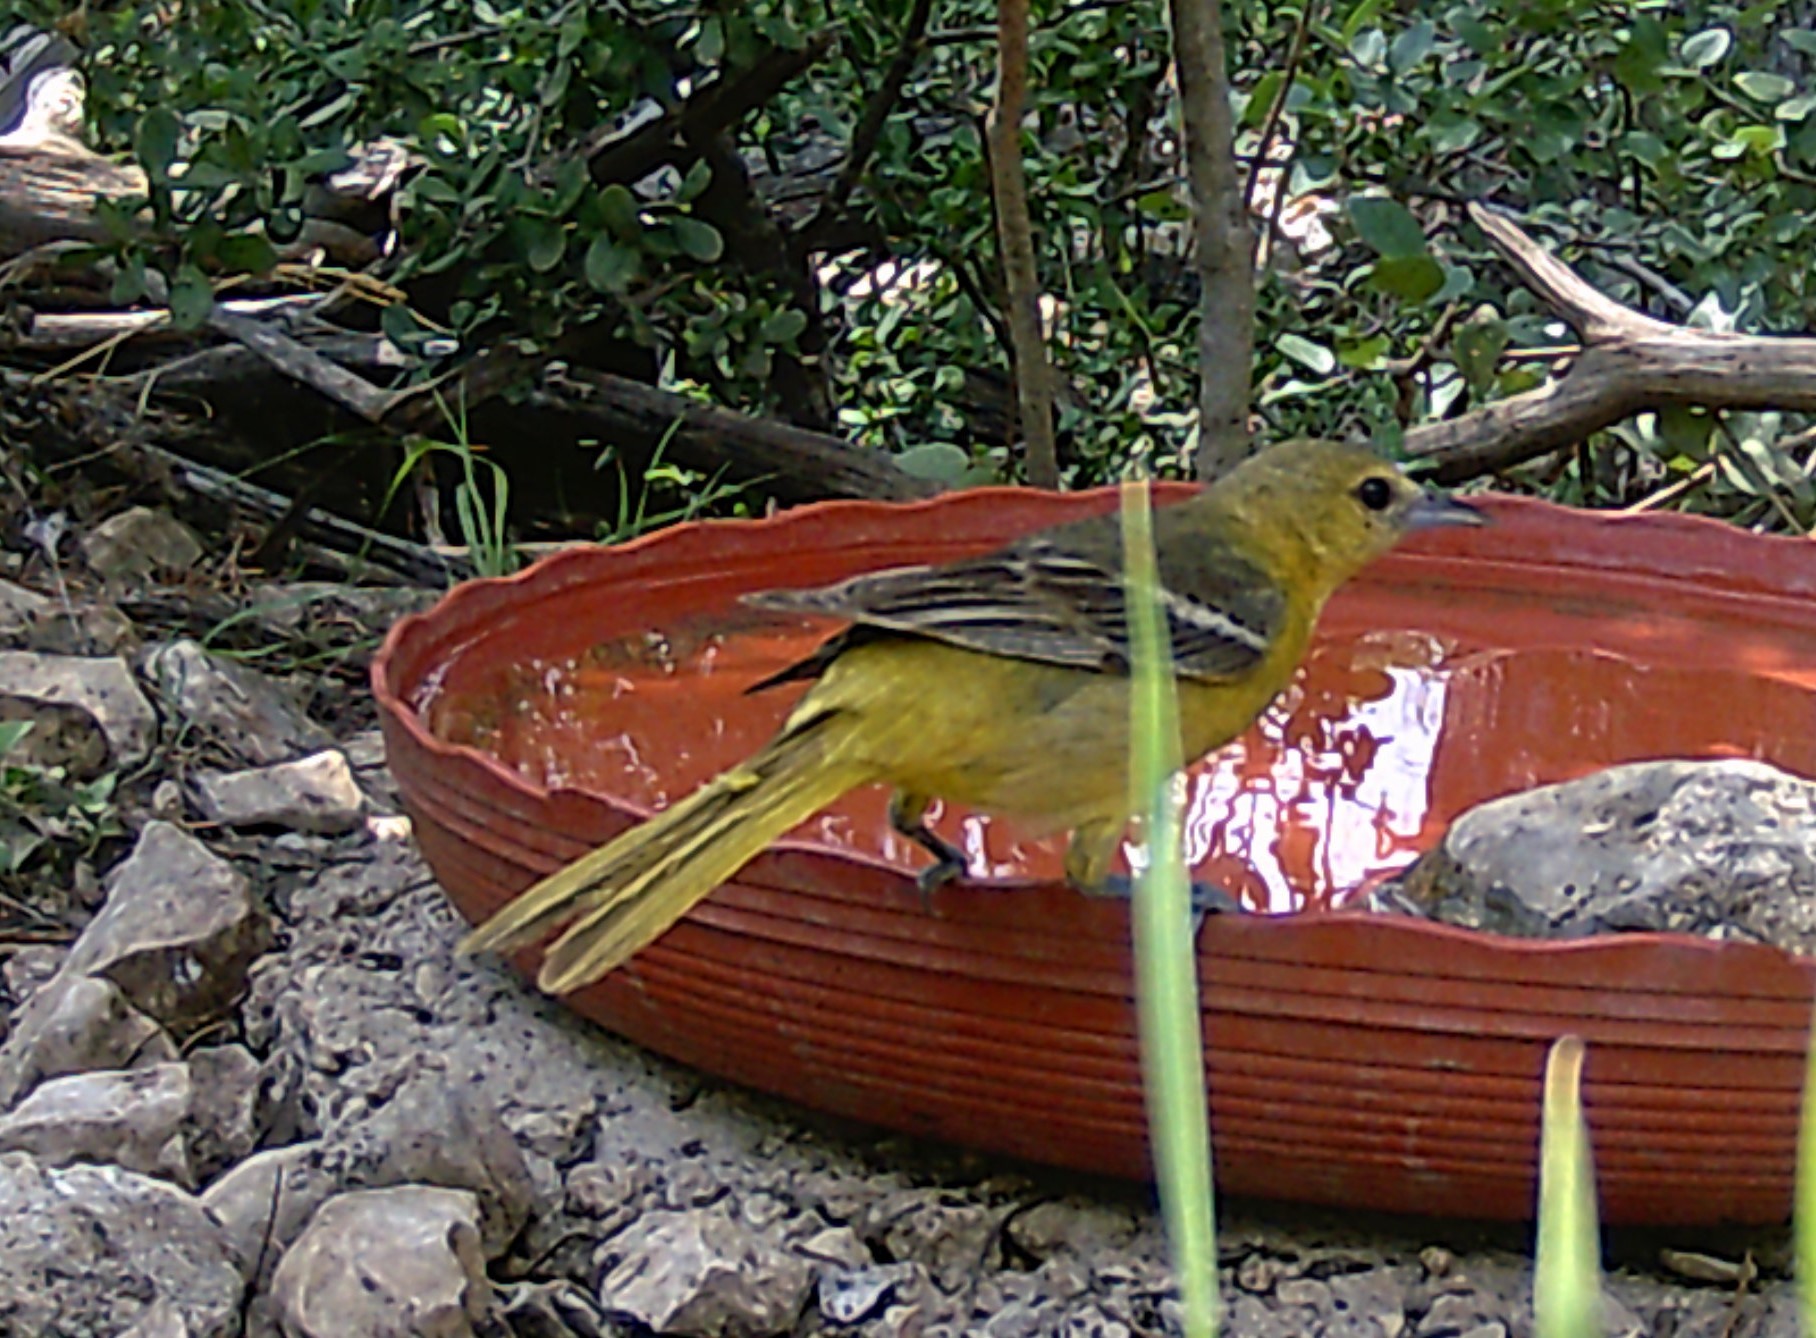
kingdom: Animalia
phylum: Chordata
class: Aves
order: Passeriformes
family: Icteridae
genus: Icterus
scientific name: Icterus spurius
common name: Orchard oriole
